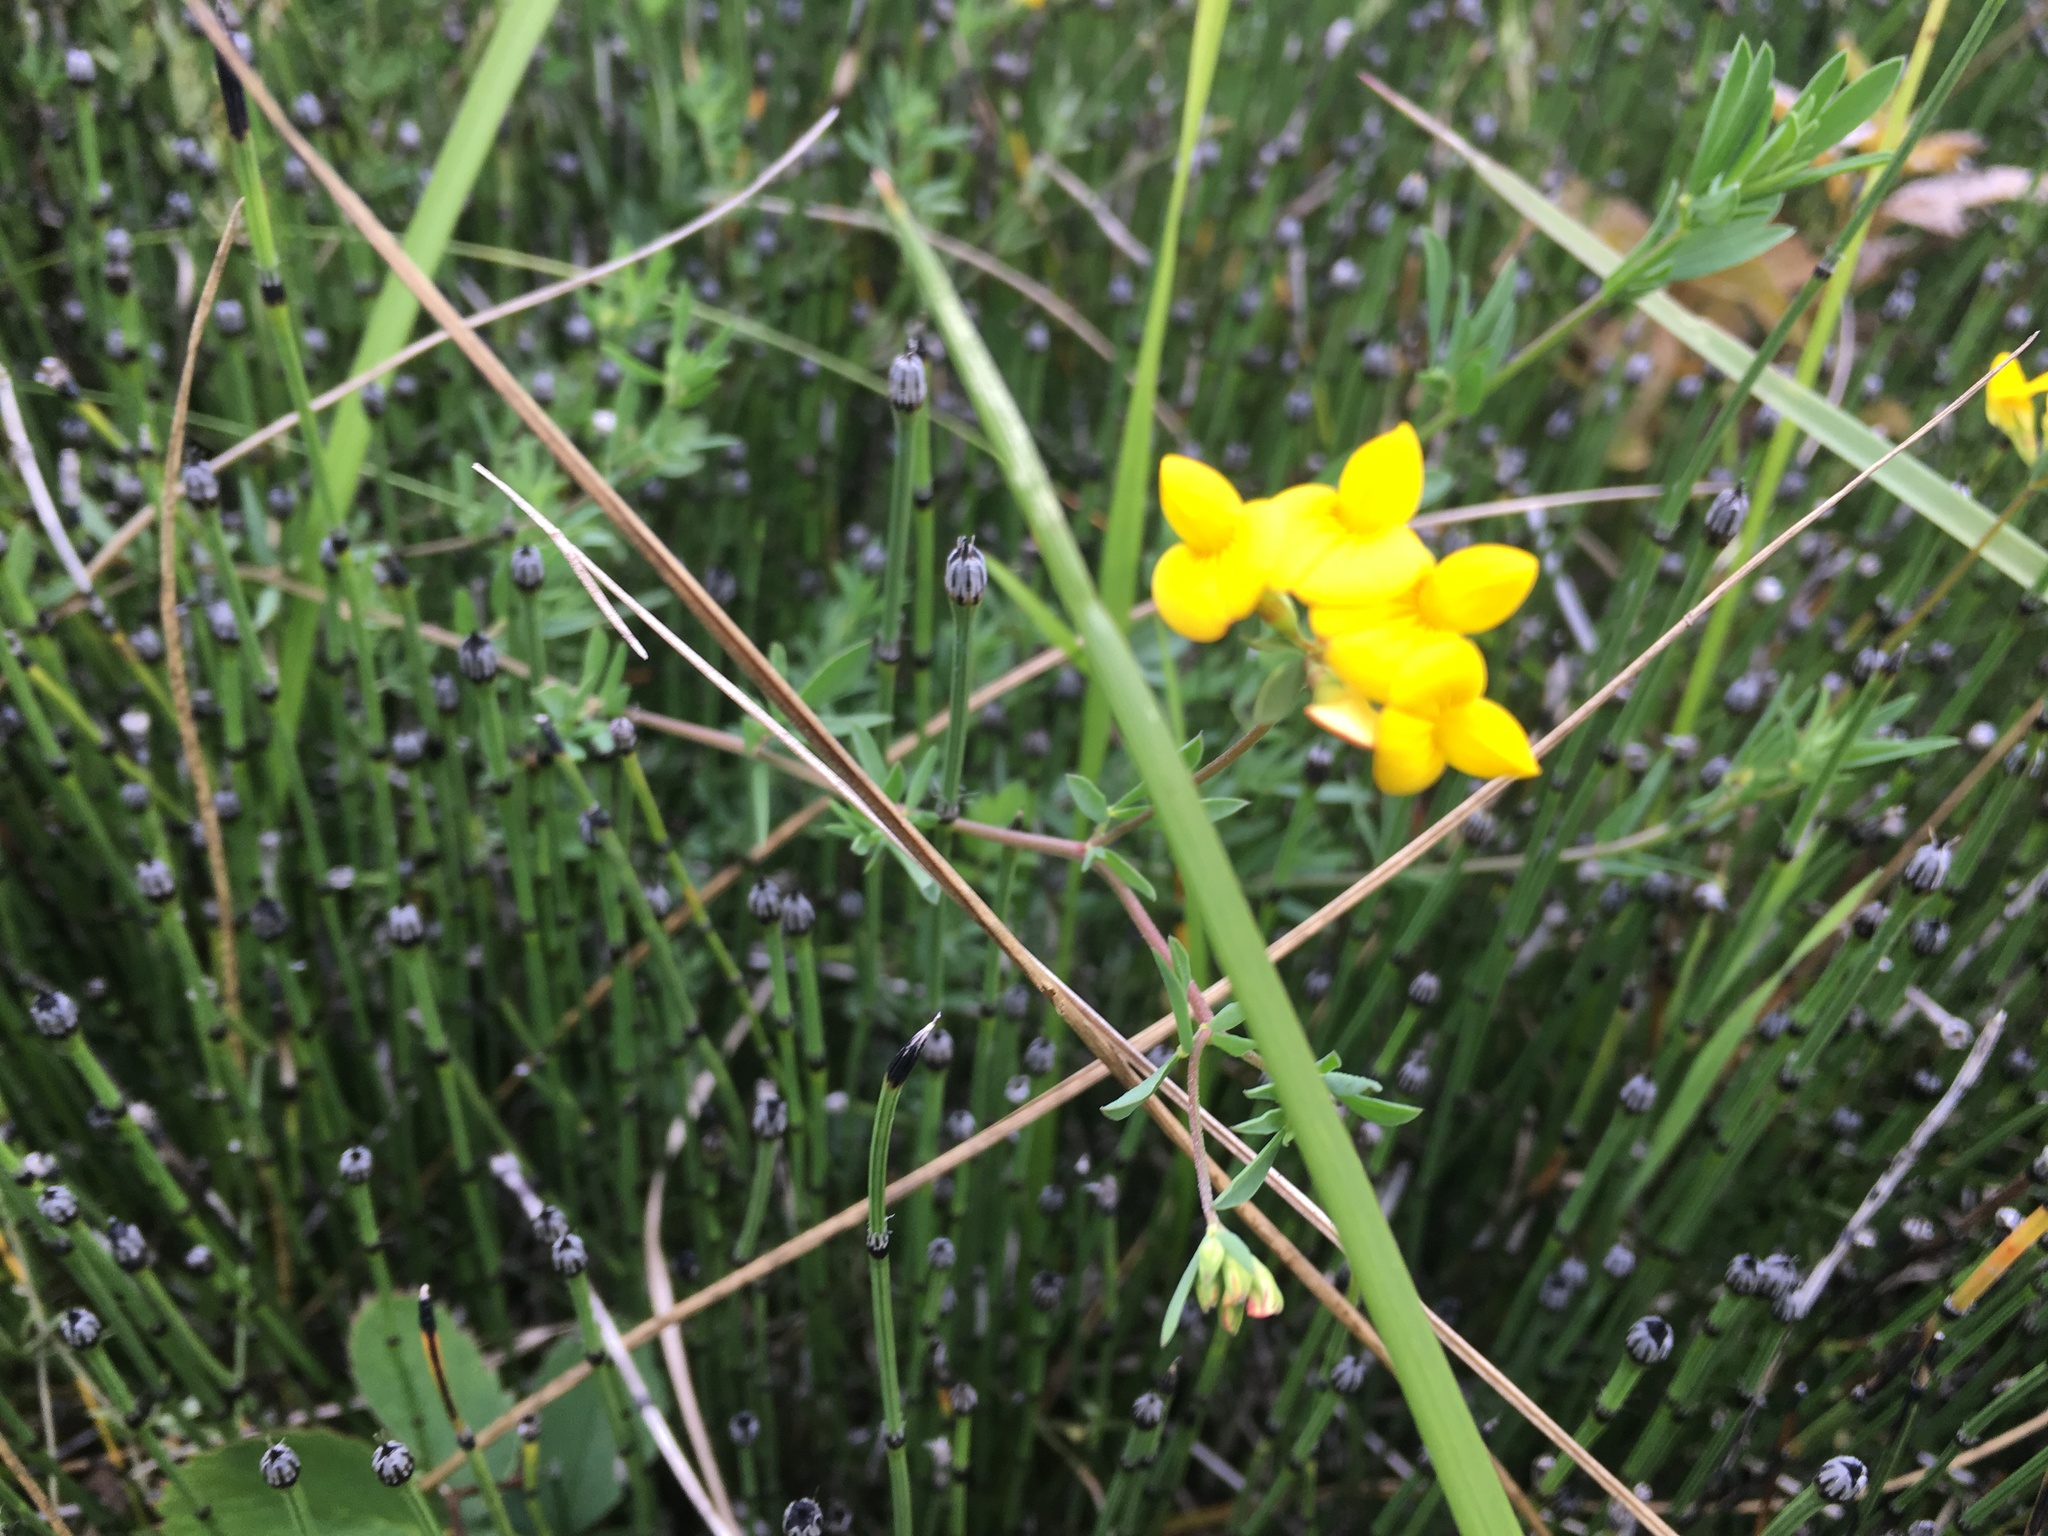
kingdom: Plantae
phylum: Tracheophyta
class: Magnoliopsida
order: Fabales
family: Fabaceae
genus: Lotus
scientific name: Lotus corniculatus
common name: Common bird's-foot-trefoil
